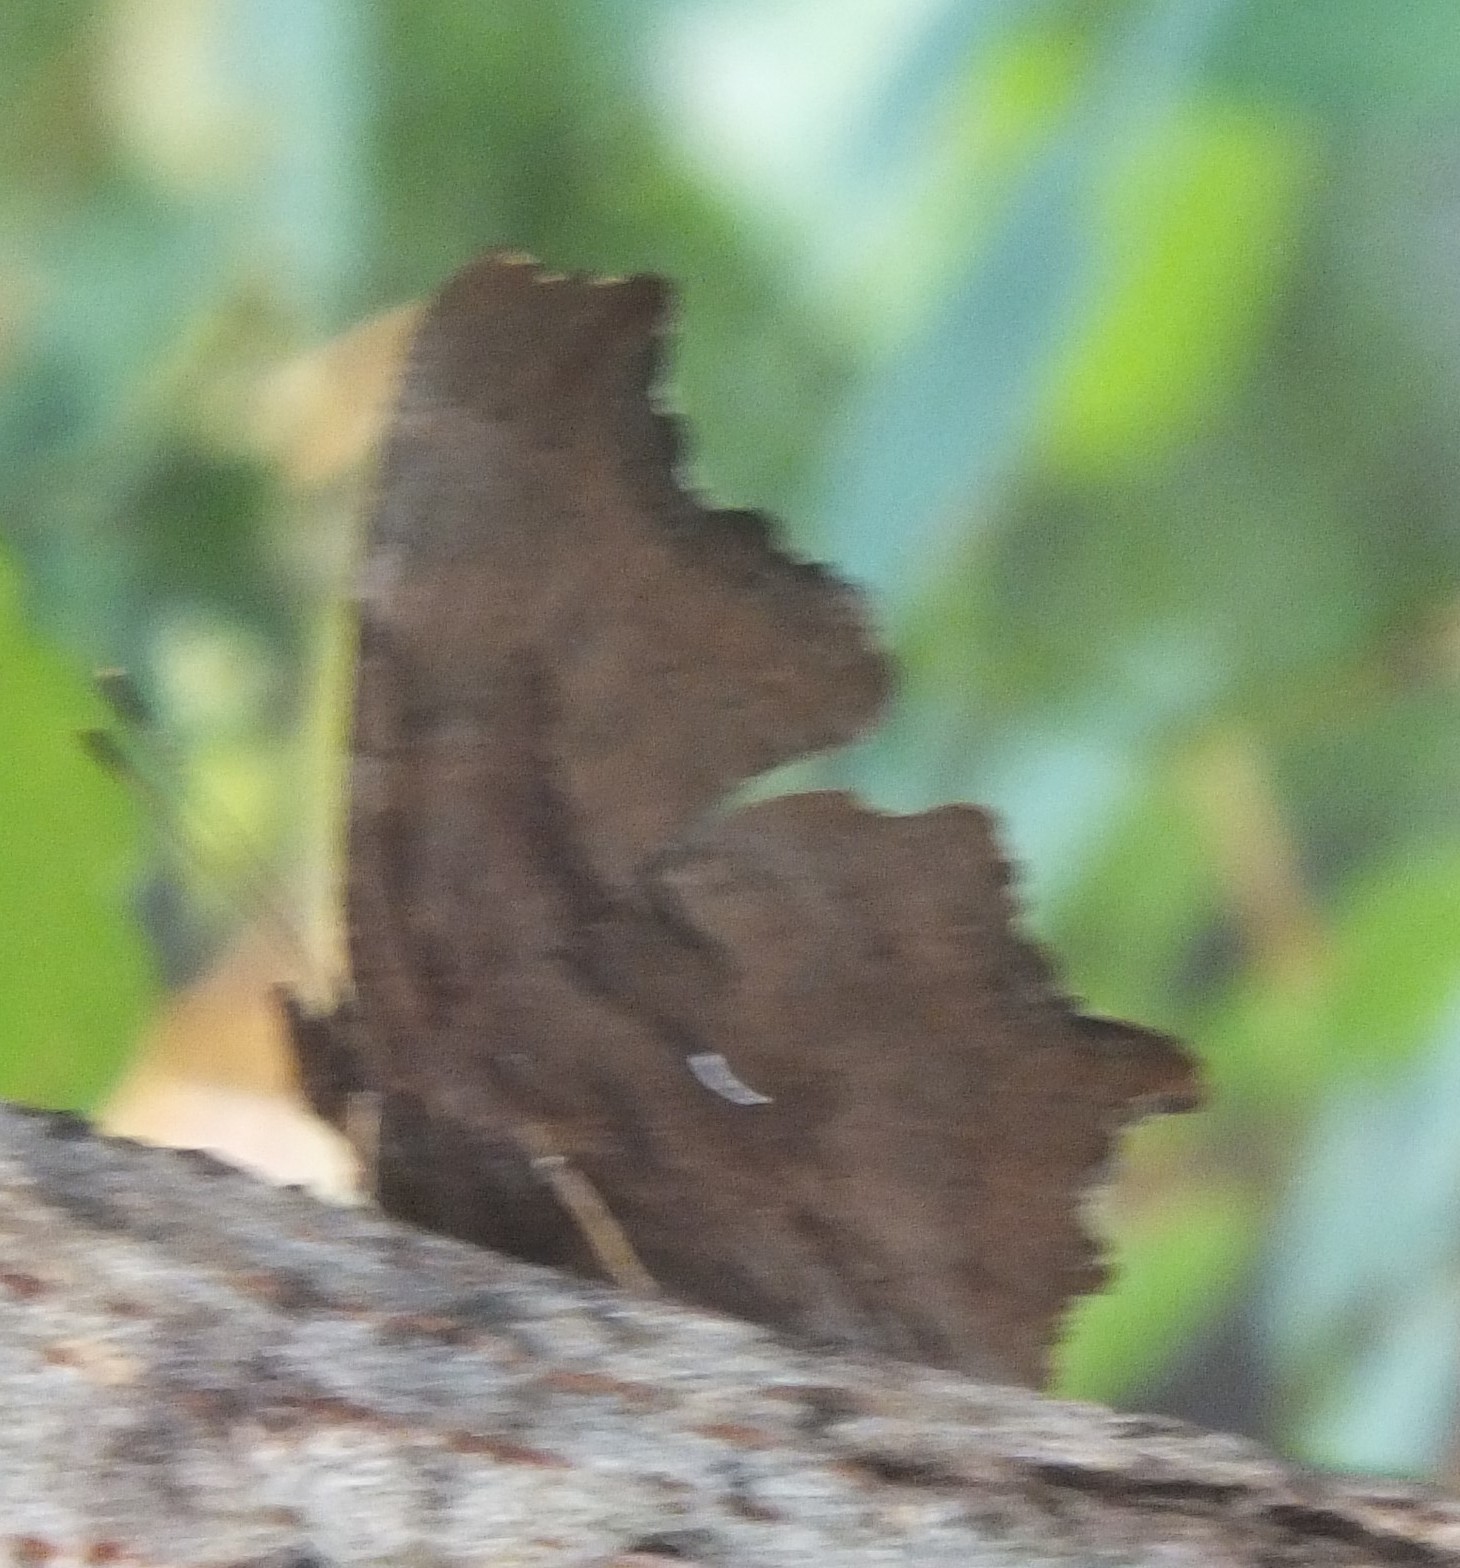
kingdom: Animalia
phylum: Arthropoda
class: Insecta
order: Lepidoptera
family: Nymphalidae
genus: Polygonia
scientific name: Polygonia satyrus
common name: Satyr angle wing
